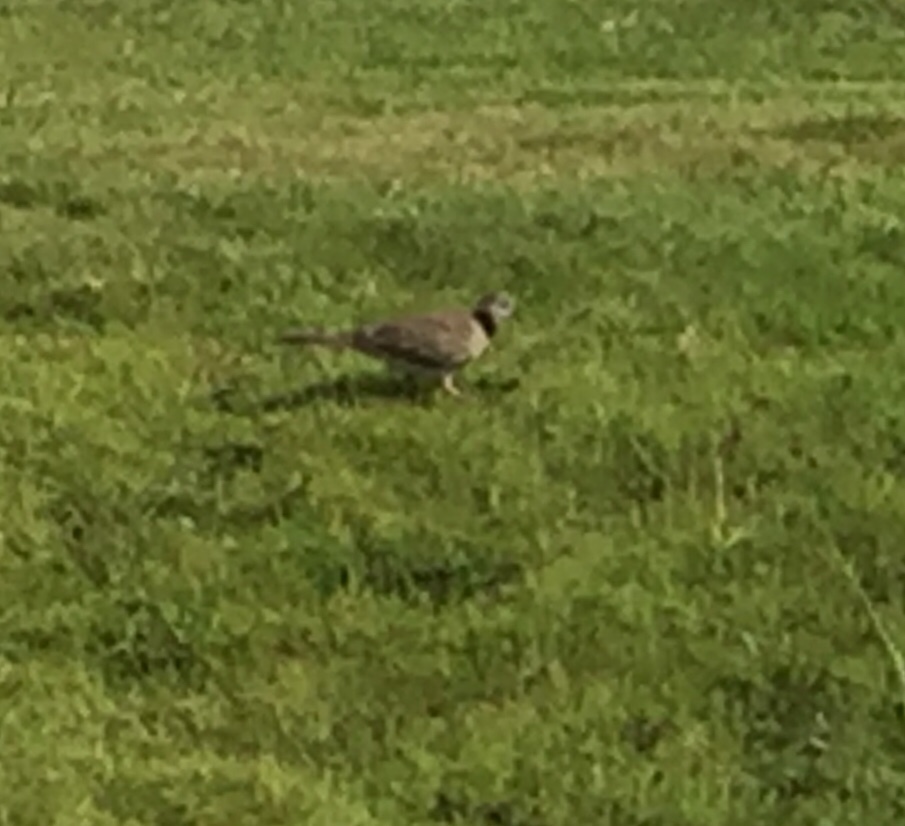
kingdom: Animalia
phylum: Chordata
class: Aves
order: Columbiformes
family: Columbidae
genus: Spilopelia
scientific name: Spilopelia chinensis
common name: Spotted dove
